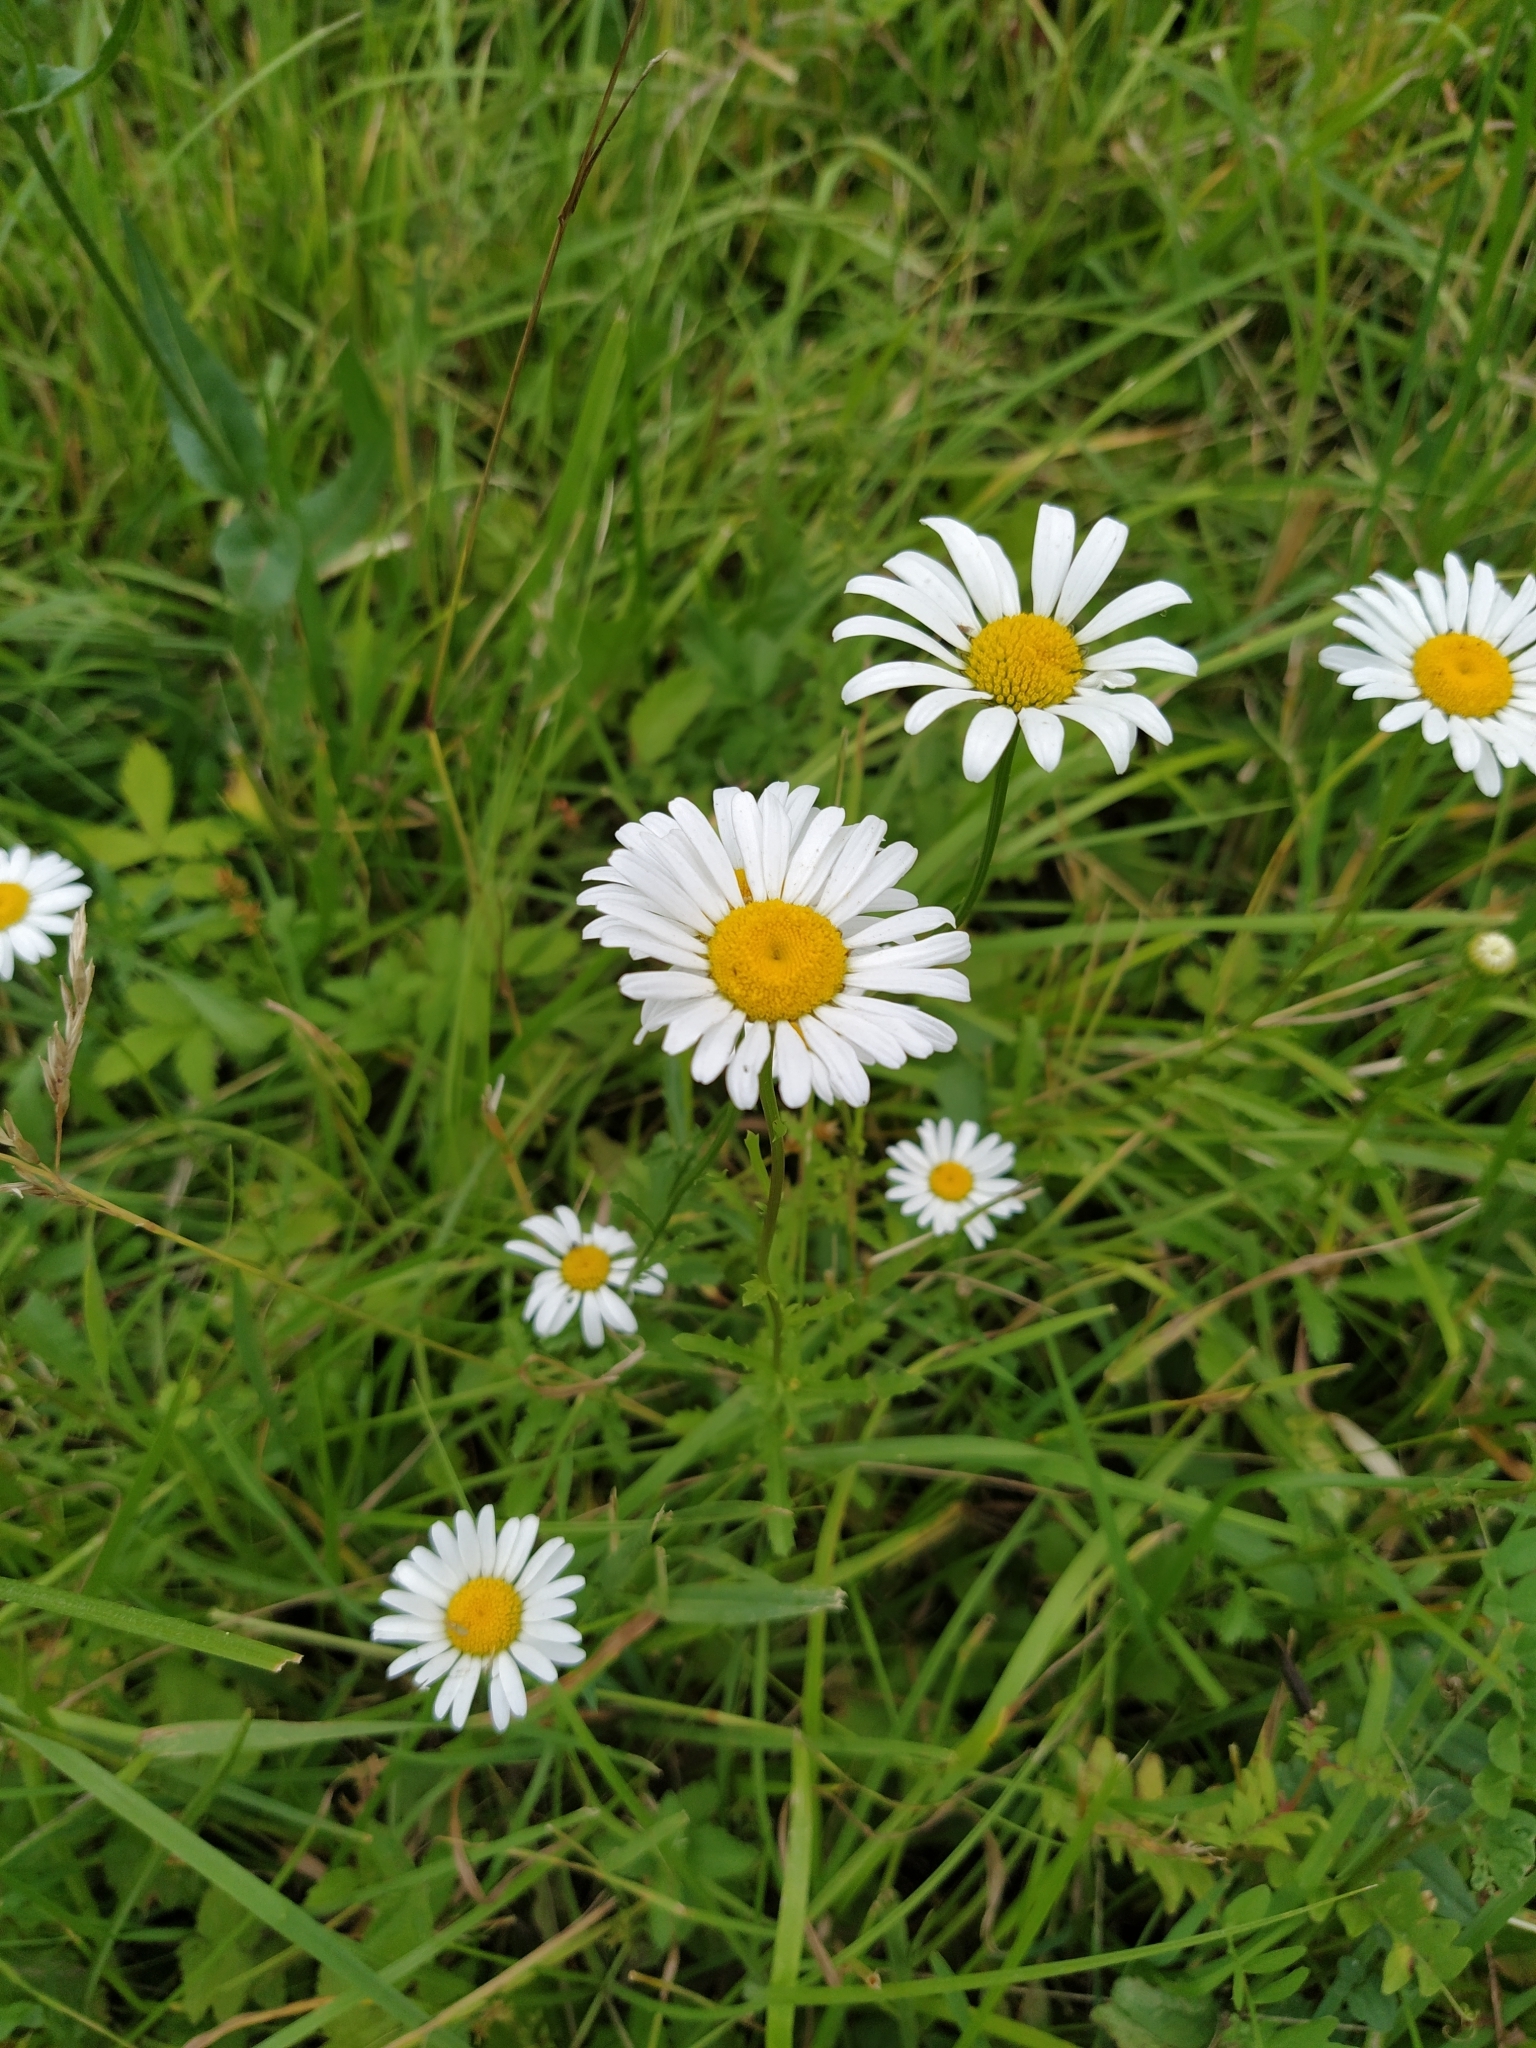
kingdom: Plantae
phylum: Tracheophyta
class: Magnoliopsida
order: Asterales
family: Asteraceae
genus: Leucanthemum
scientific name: Leucanthemum vulgare
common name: Oxeye daisy
